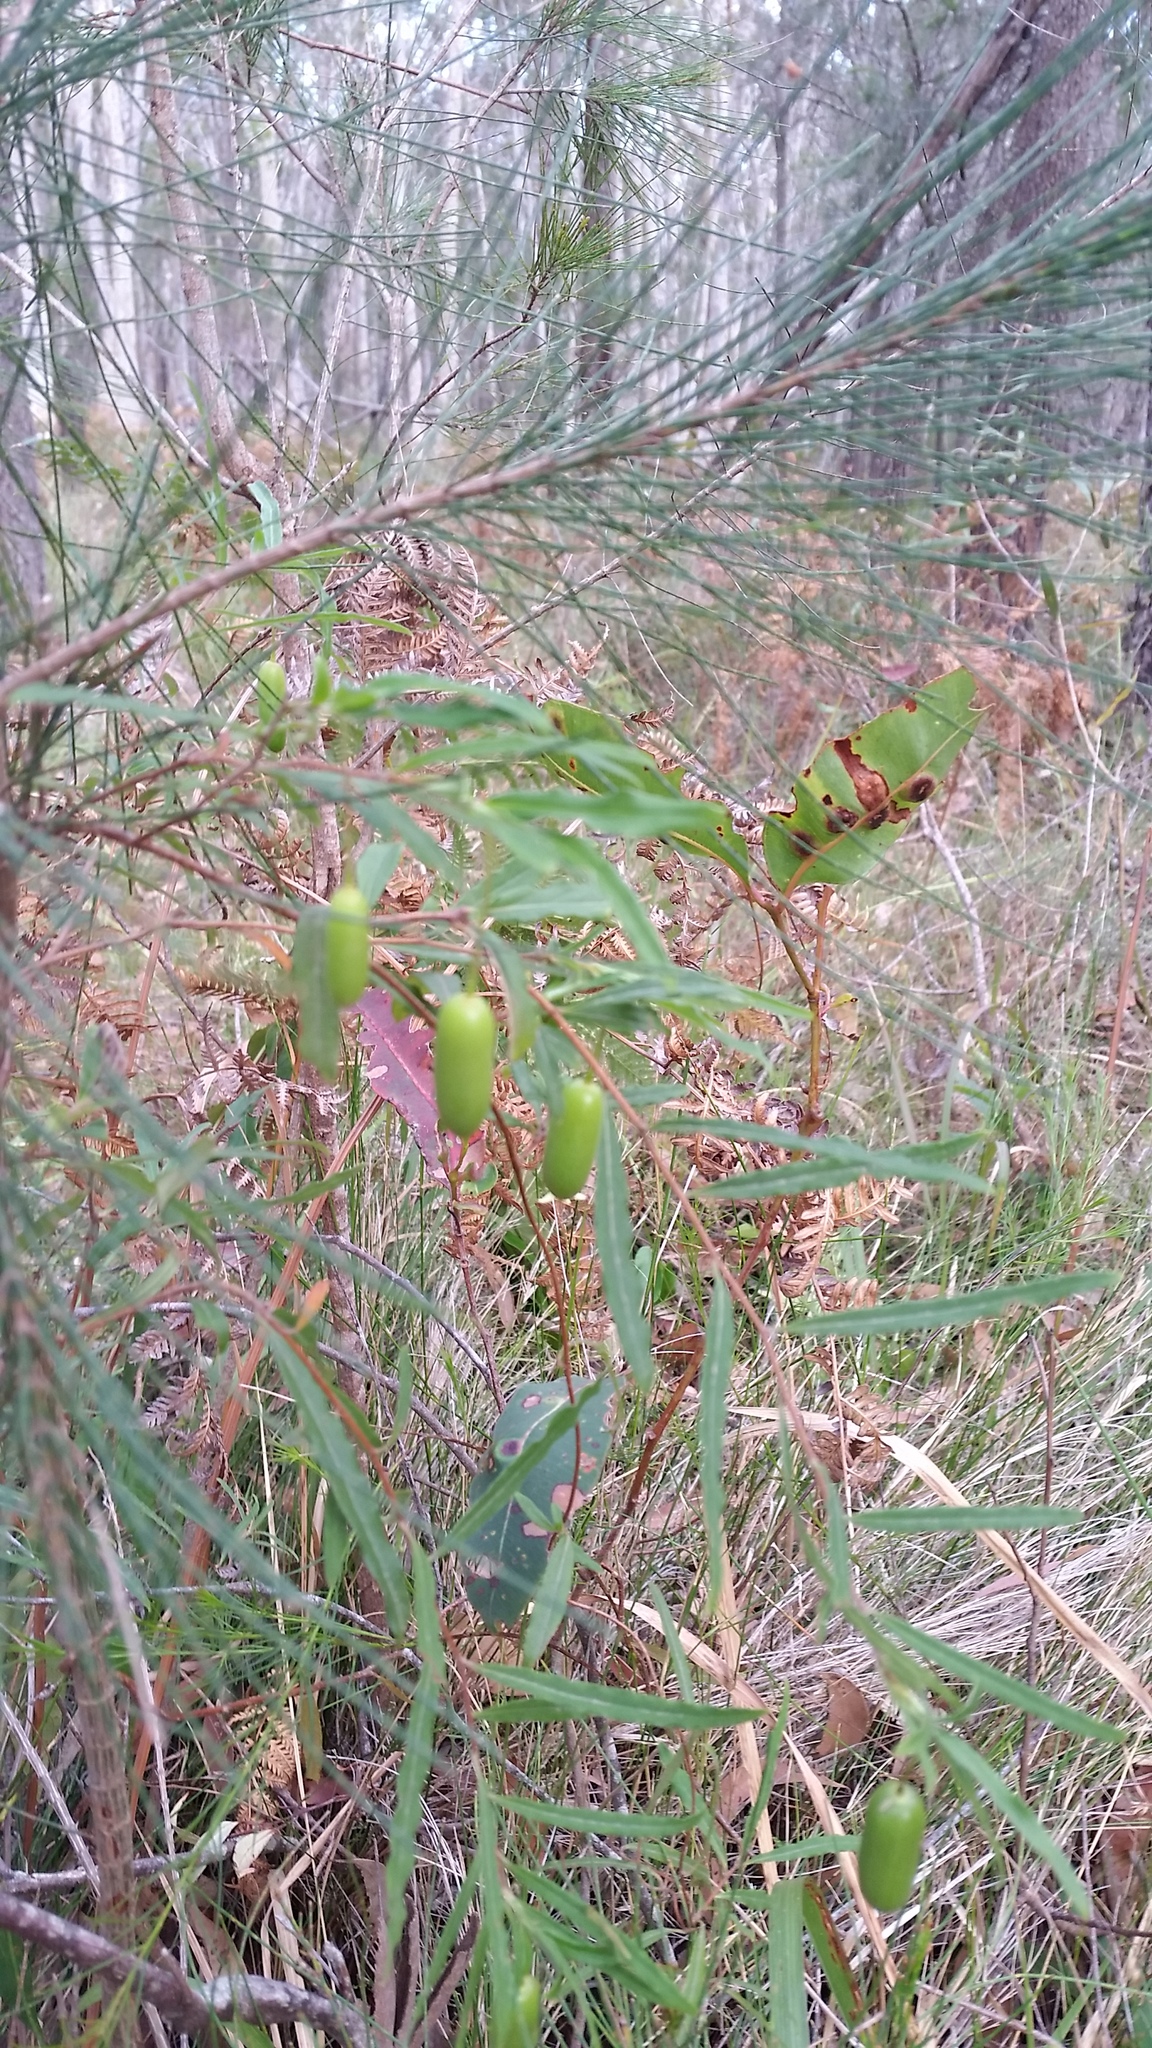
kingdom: Plantae
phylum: Tracheophyta
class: Magnoliopsida
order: Apiales
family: Pittosporaceae
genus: Billardiera
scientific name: Billardiera scandens
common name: Apple-berry
